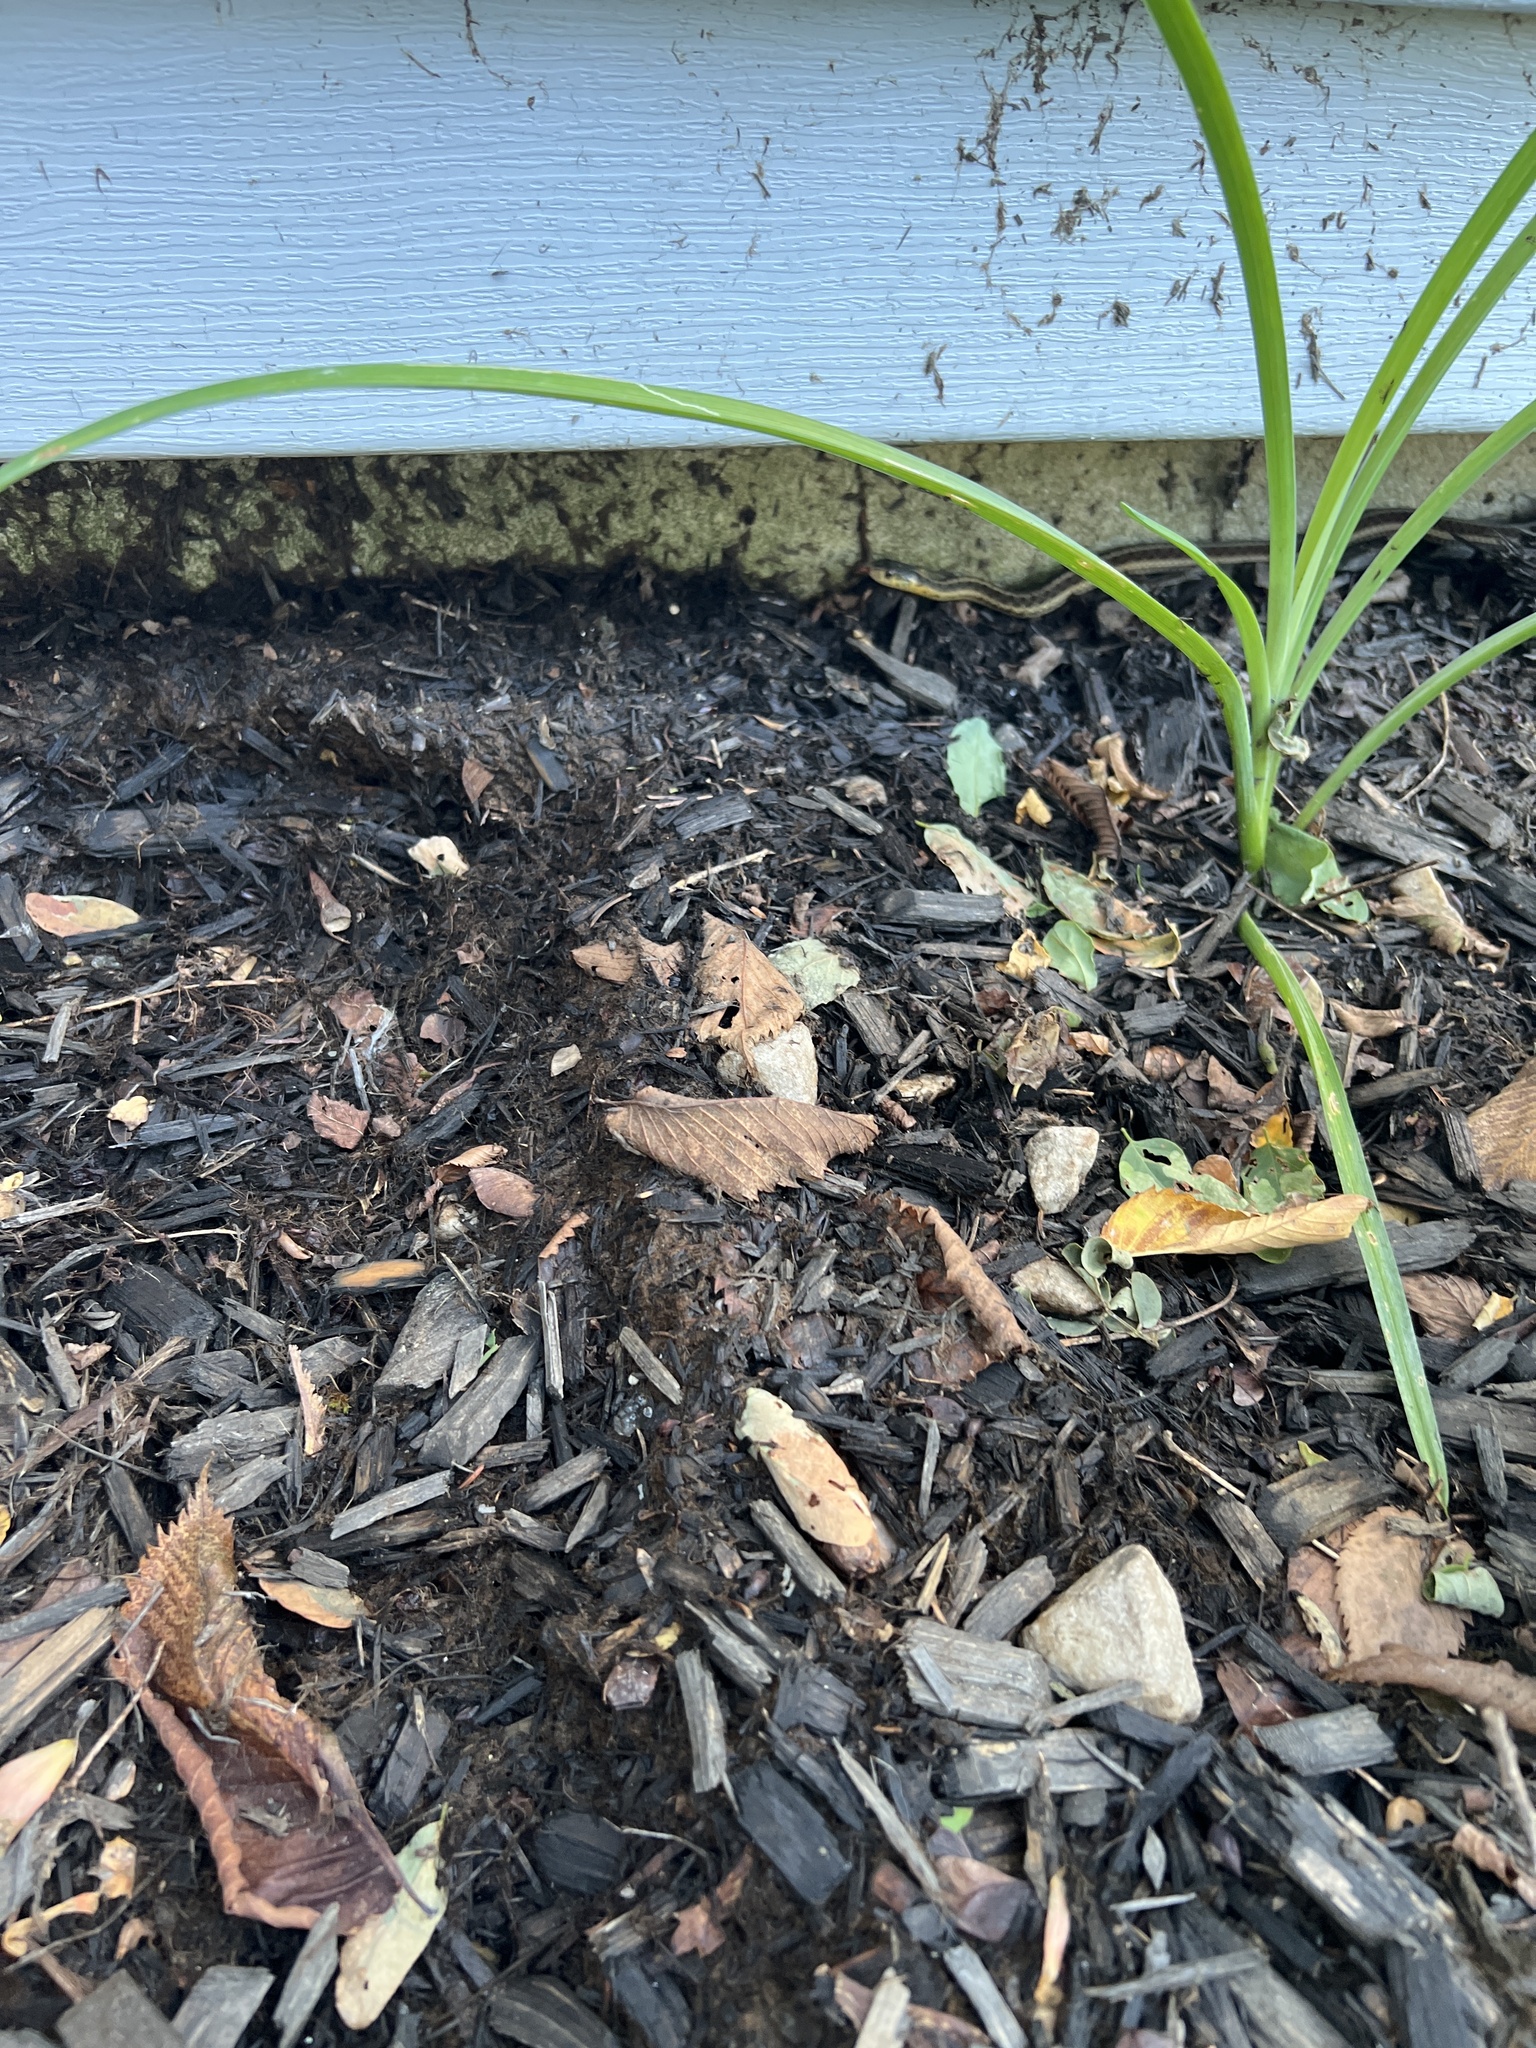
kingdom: Animalia
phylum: Chordata
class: Squamata
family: Colubridae
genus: Thamnophis
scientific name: Thamnophis sirtalis
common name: Common garter snake
